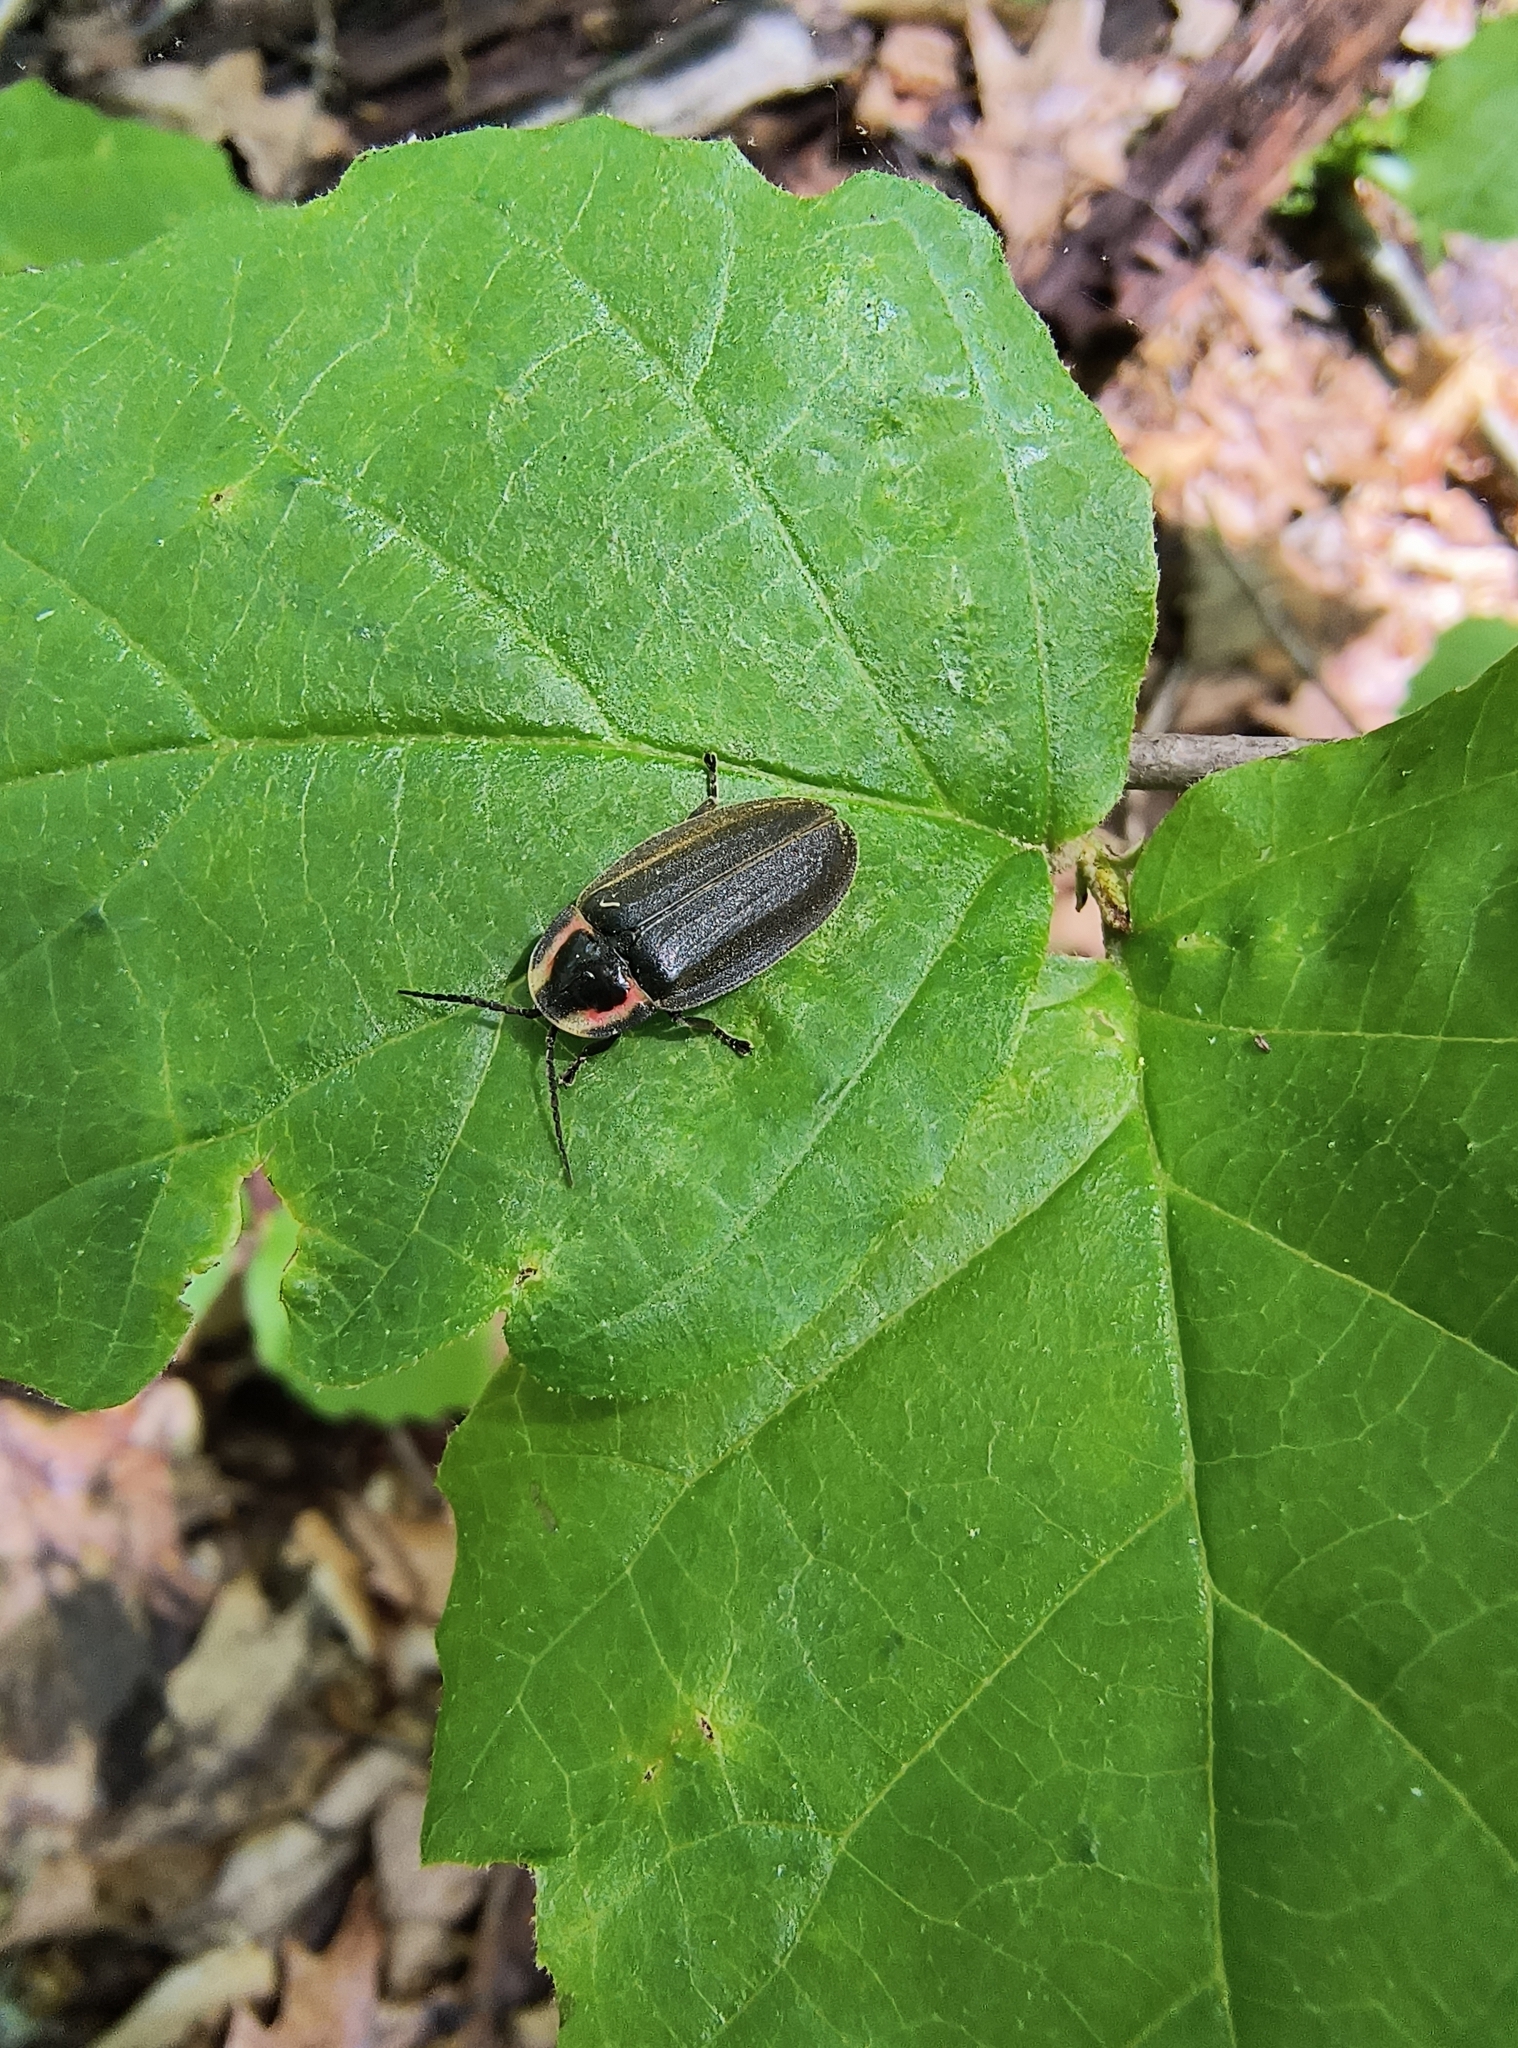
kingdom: Animalia
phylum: Arthropoda
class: Insecta
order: Coleoptera
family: Lampyridae
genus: Photinus
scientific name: Photinus corrusca
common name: Winter firefly
